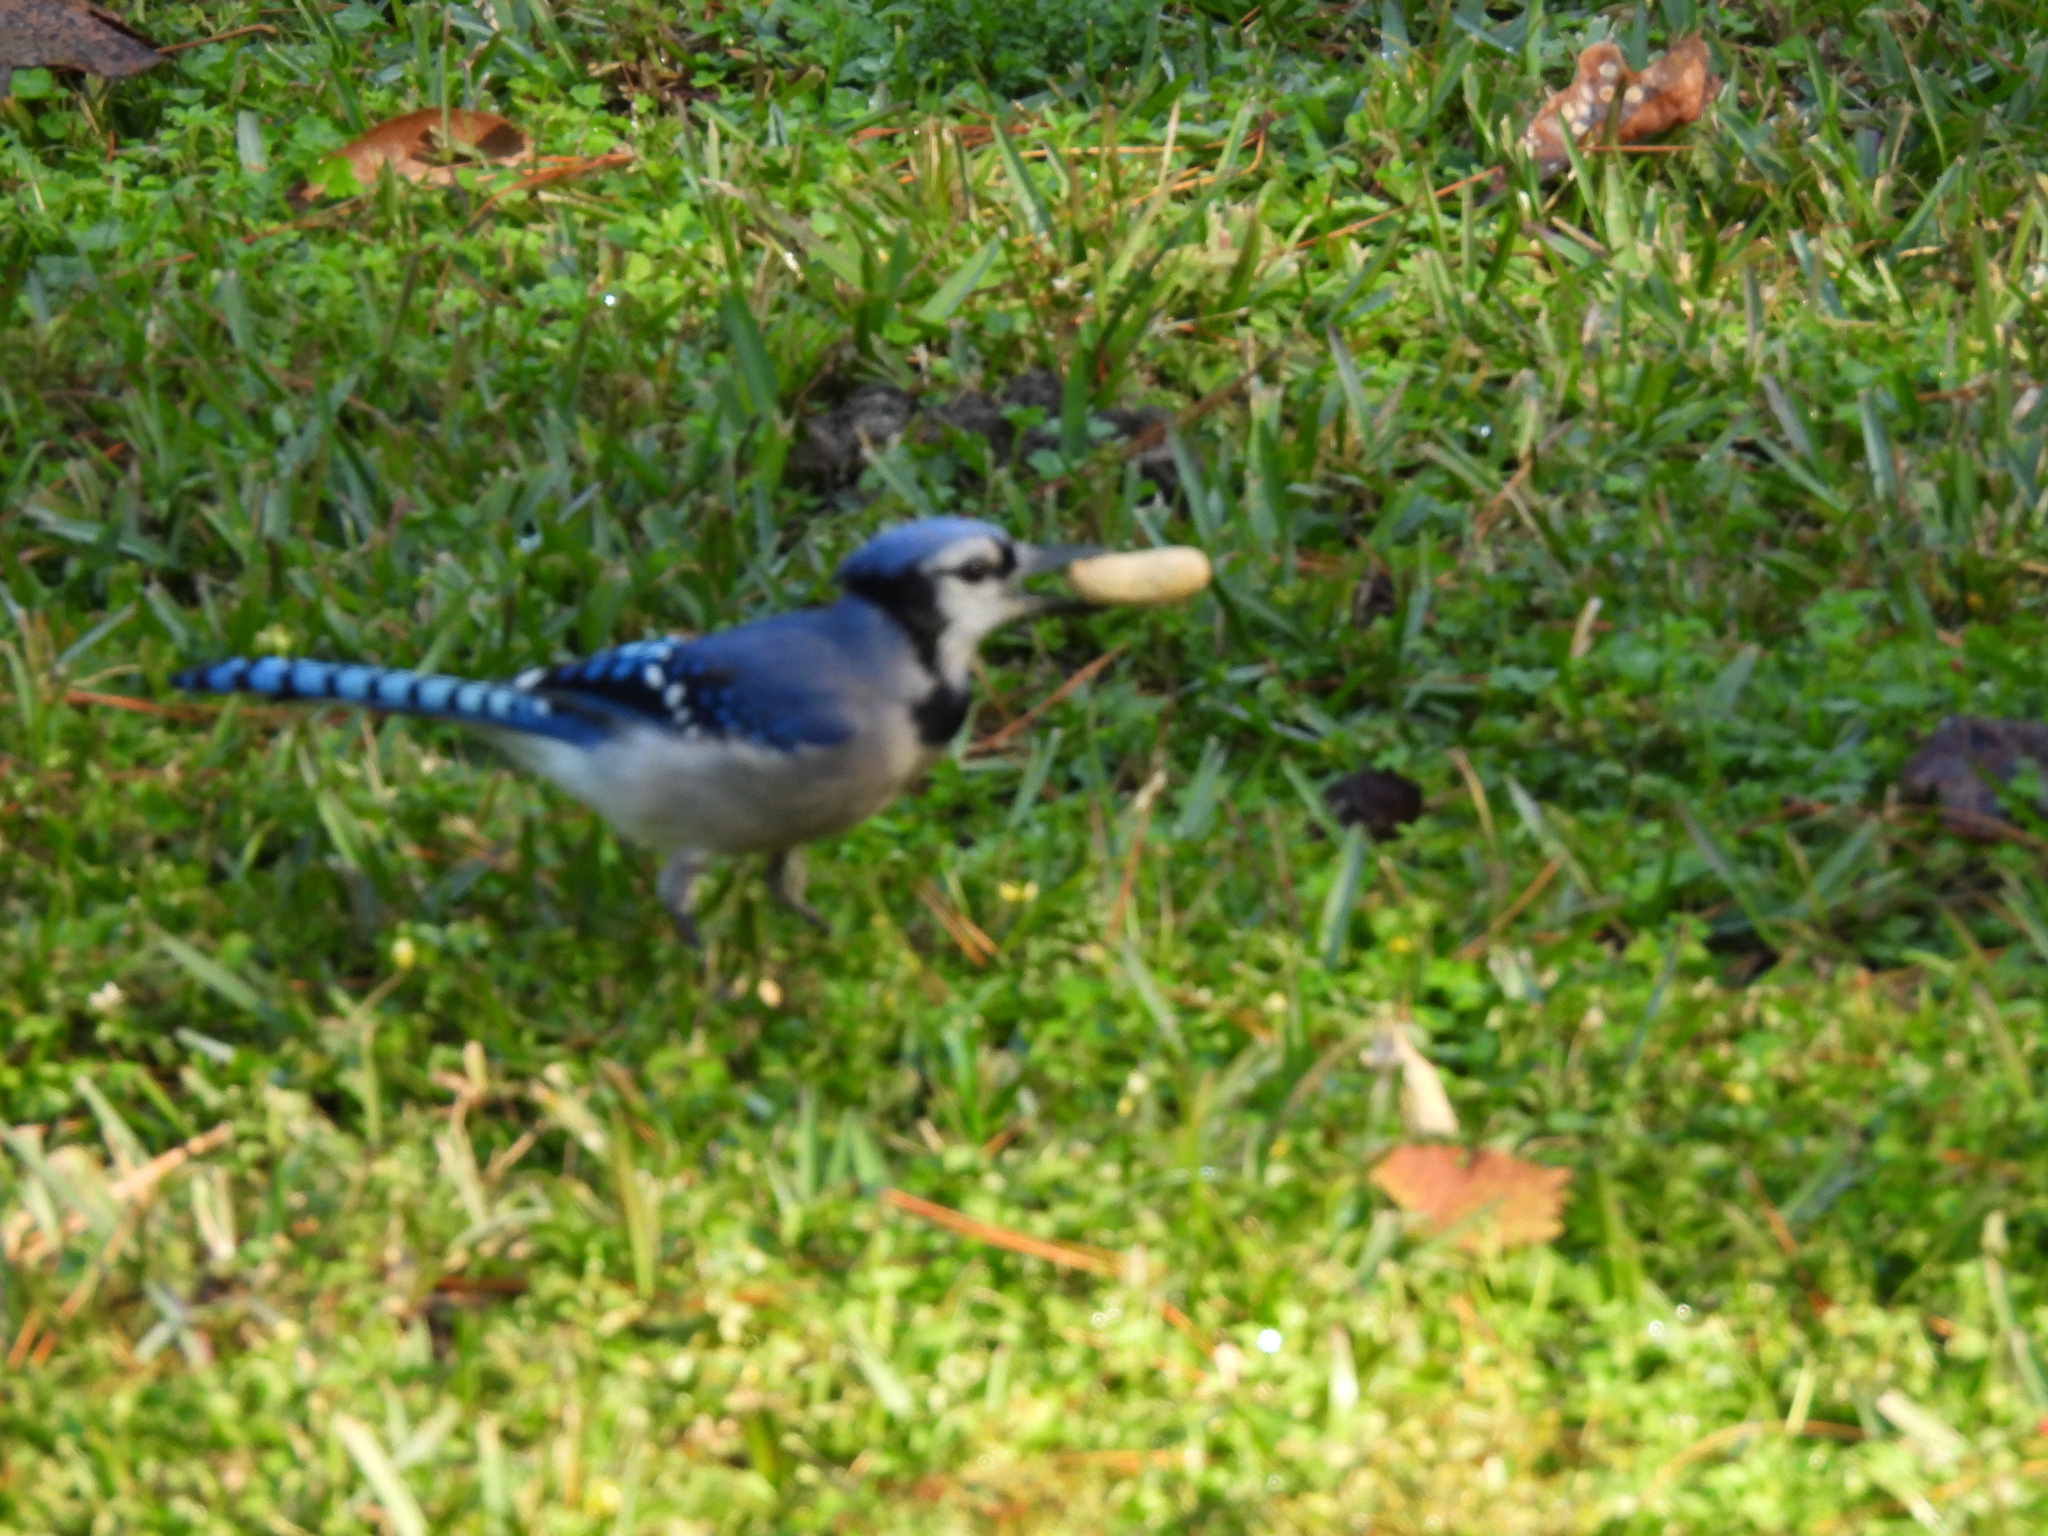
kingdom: Animalia
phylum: Chordata
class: Aves
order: Passeriformes
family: Corvidae
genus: Cyanocitta
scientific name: Cyanocitta cristata
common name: Blue jay
